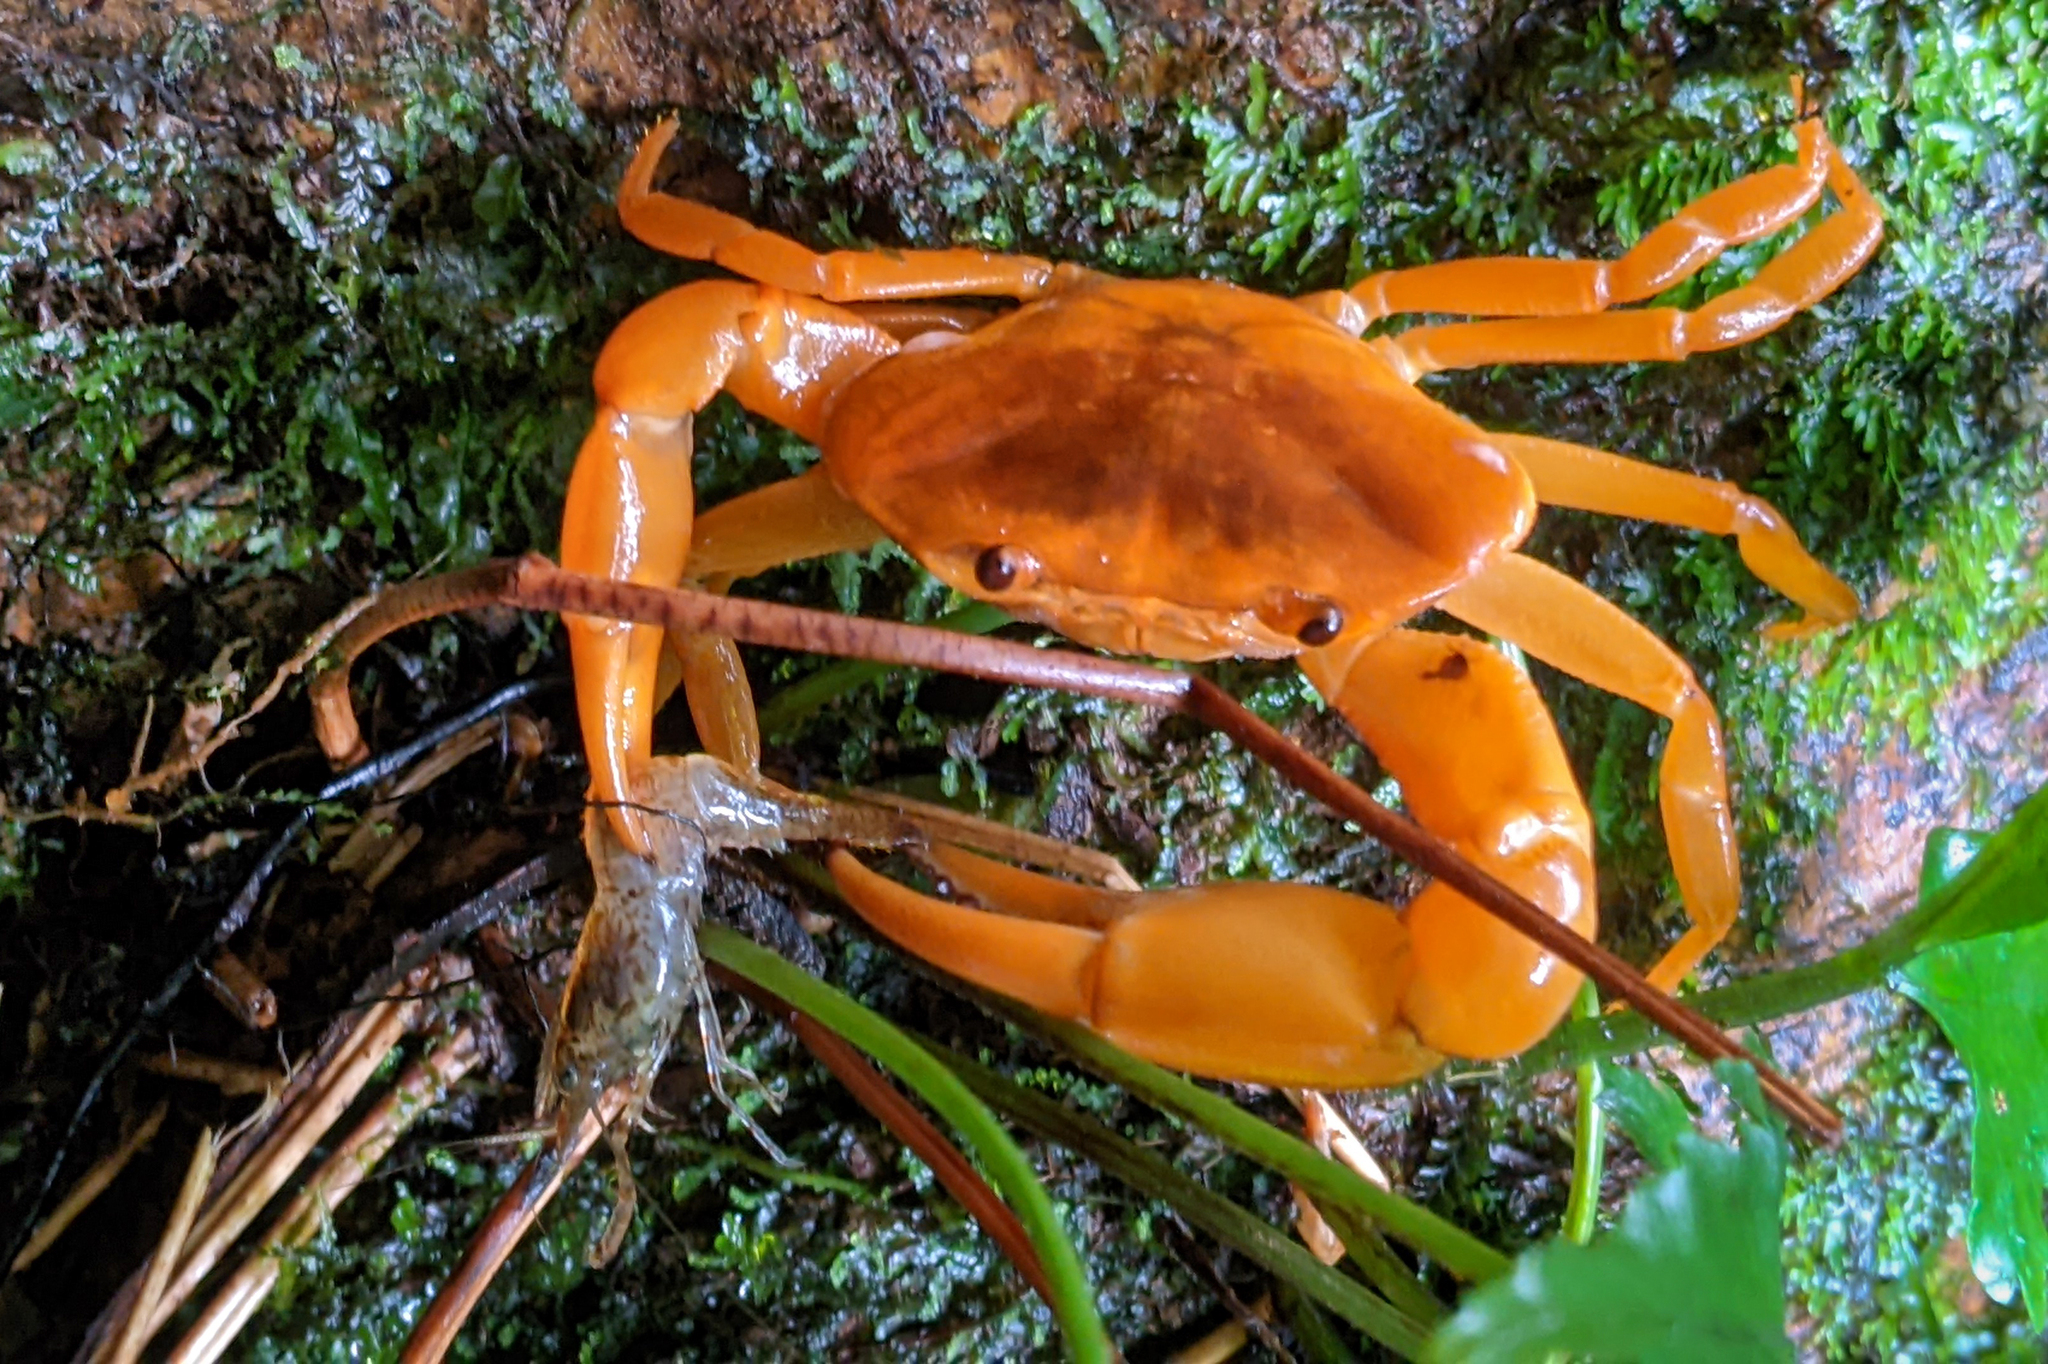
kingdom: Animalia
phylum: Arthropoda
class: Malacostraca
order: Decapoda
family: Pseudothelphusidae
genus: Microthelphusa
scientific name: Microthelphusa wymani
